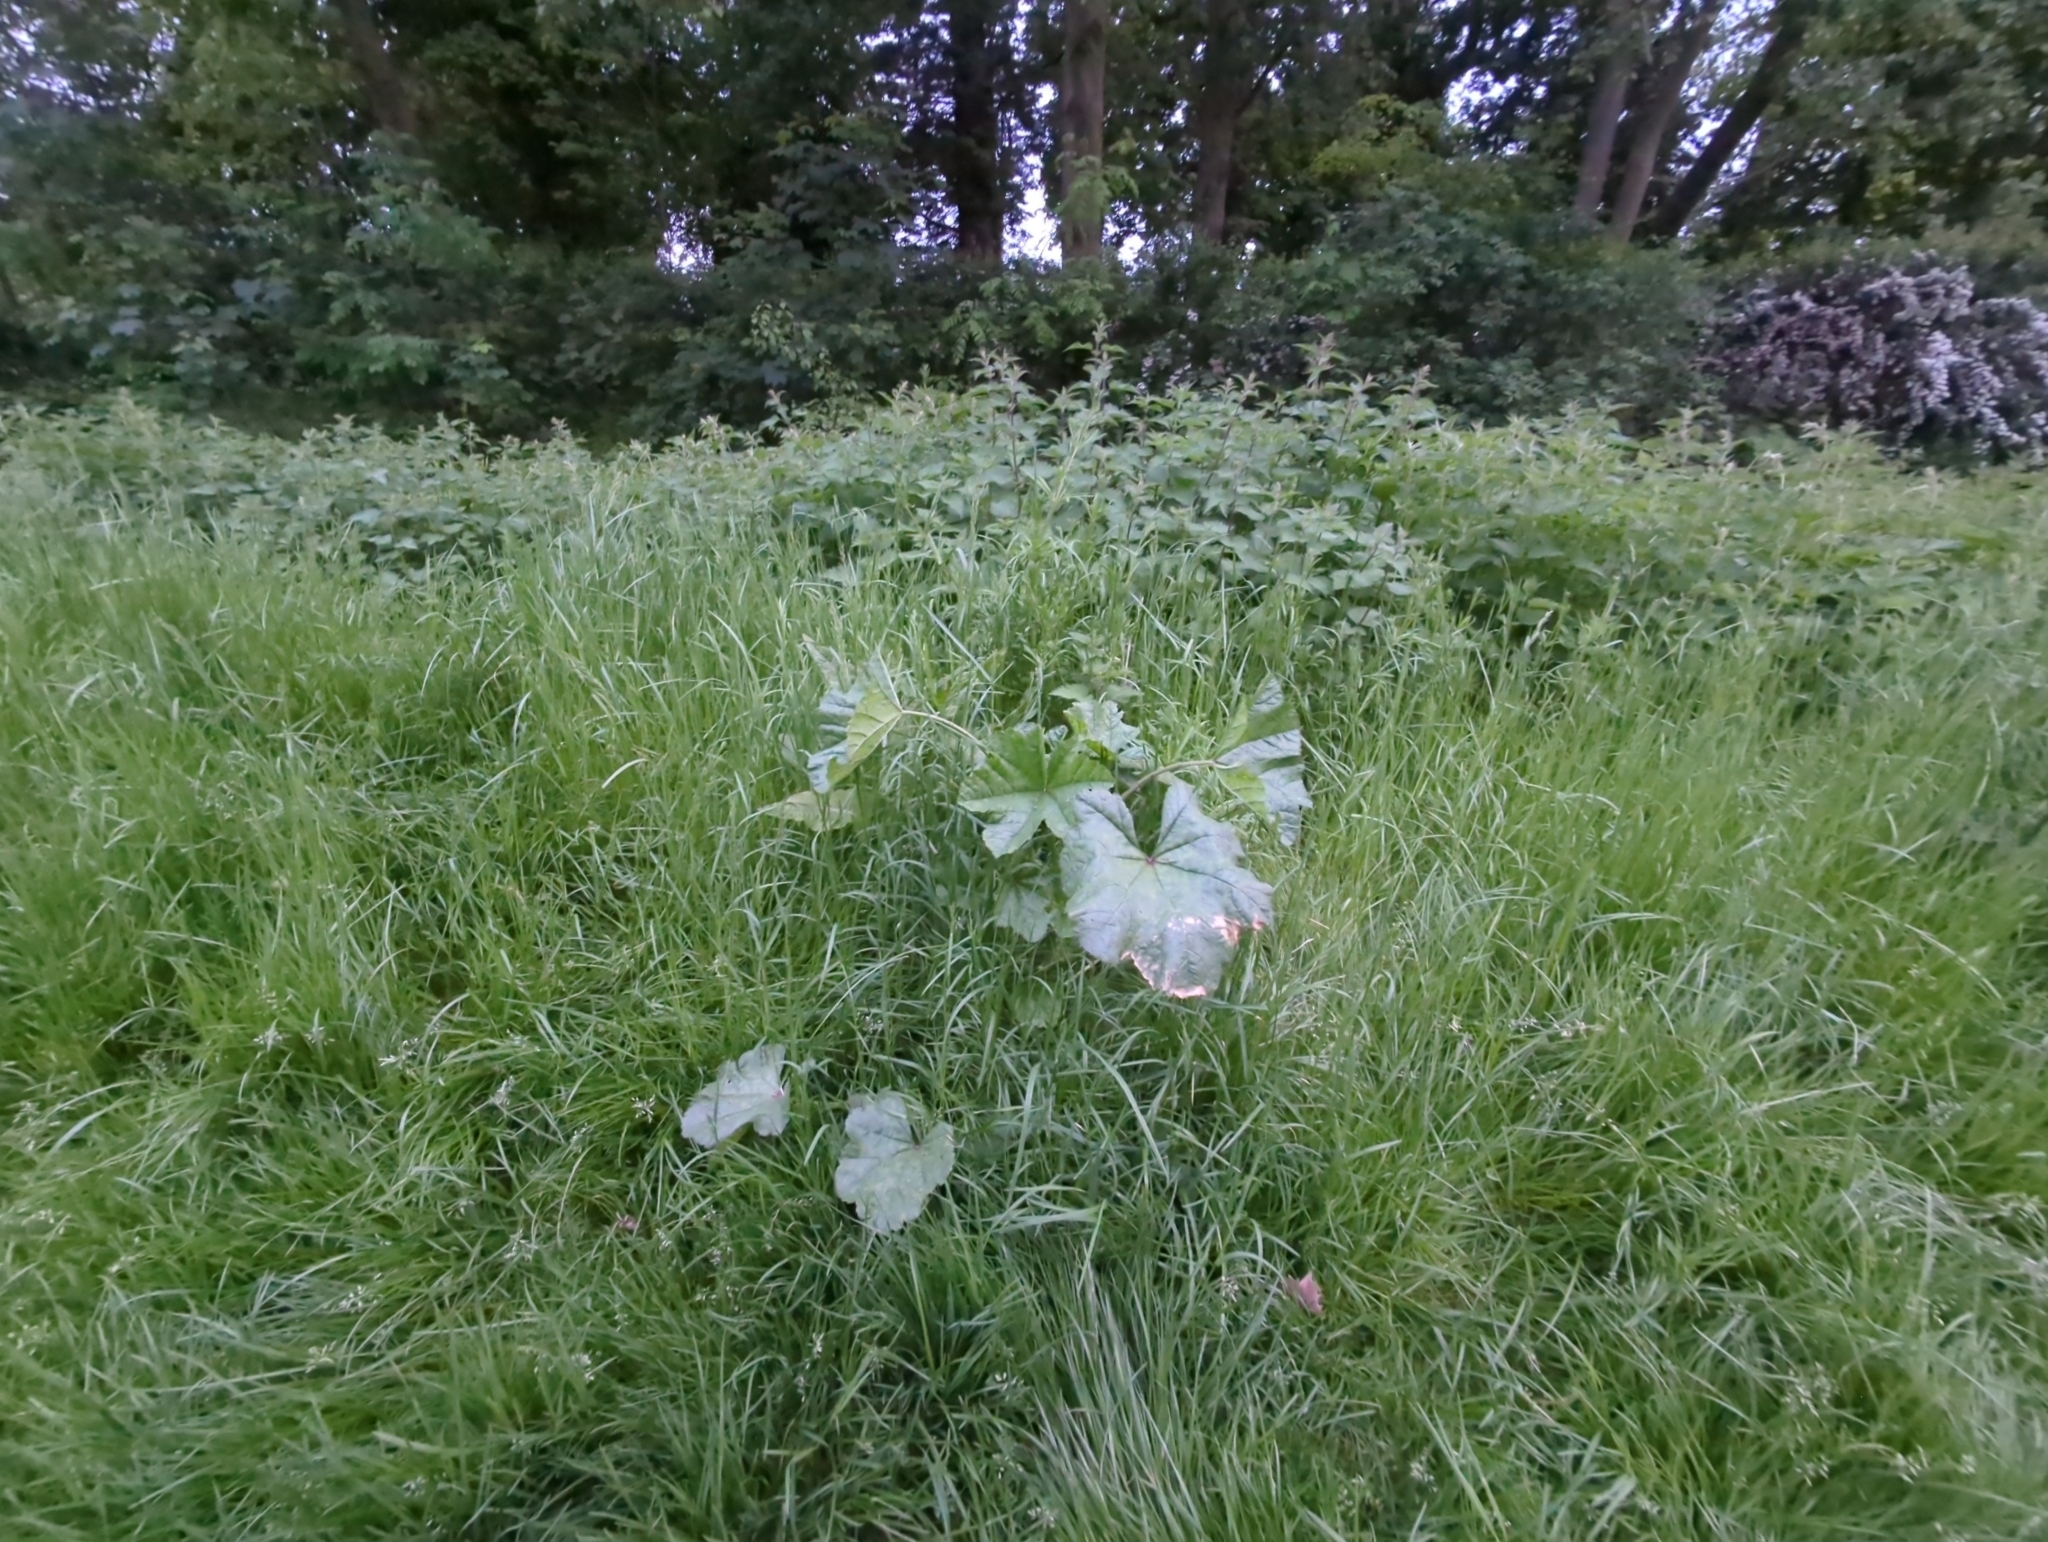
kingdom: Plantae
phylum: Tracheophyta
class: Magnoliopsida
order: Malvales
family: Malvaceae
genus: Malva
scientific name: Malva sylvestris
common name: Common mallow
